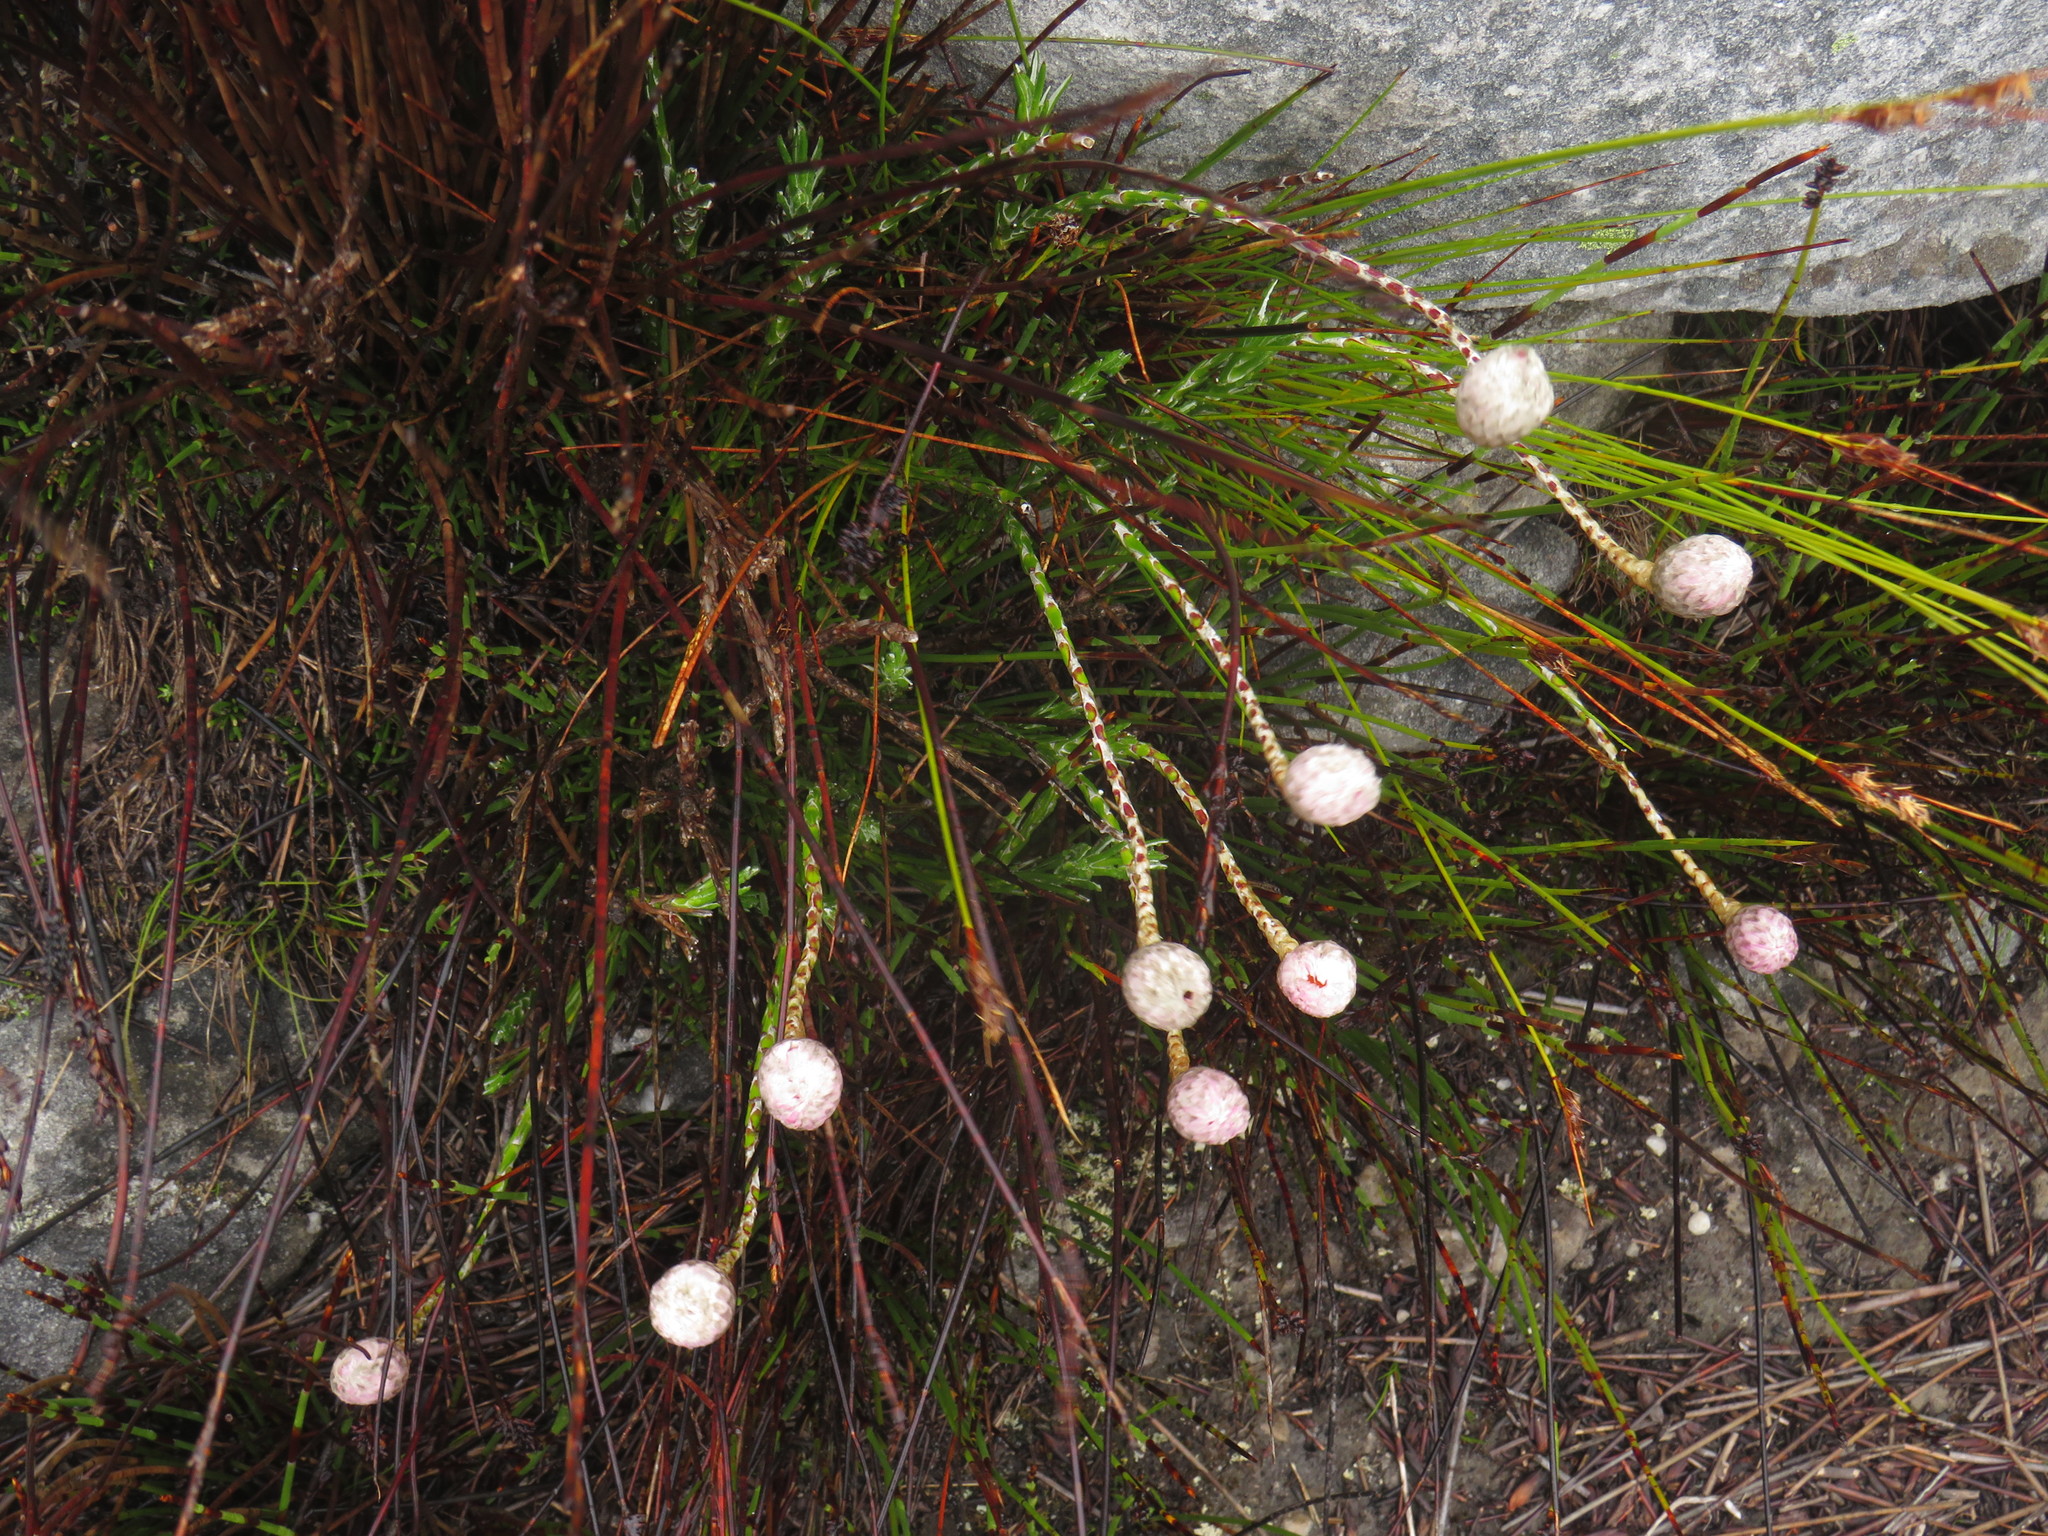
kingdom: Plantae
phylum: Tracheophyta
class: Magnoliopsida
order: Asterales
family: Asteraceae
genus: Edmondia
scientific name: Edmondia pinifolia
